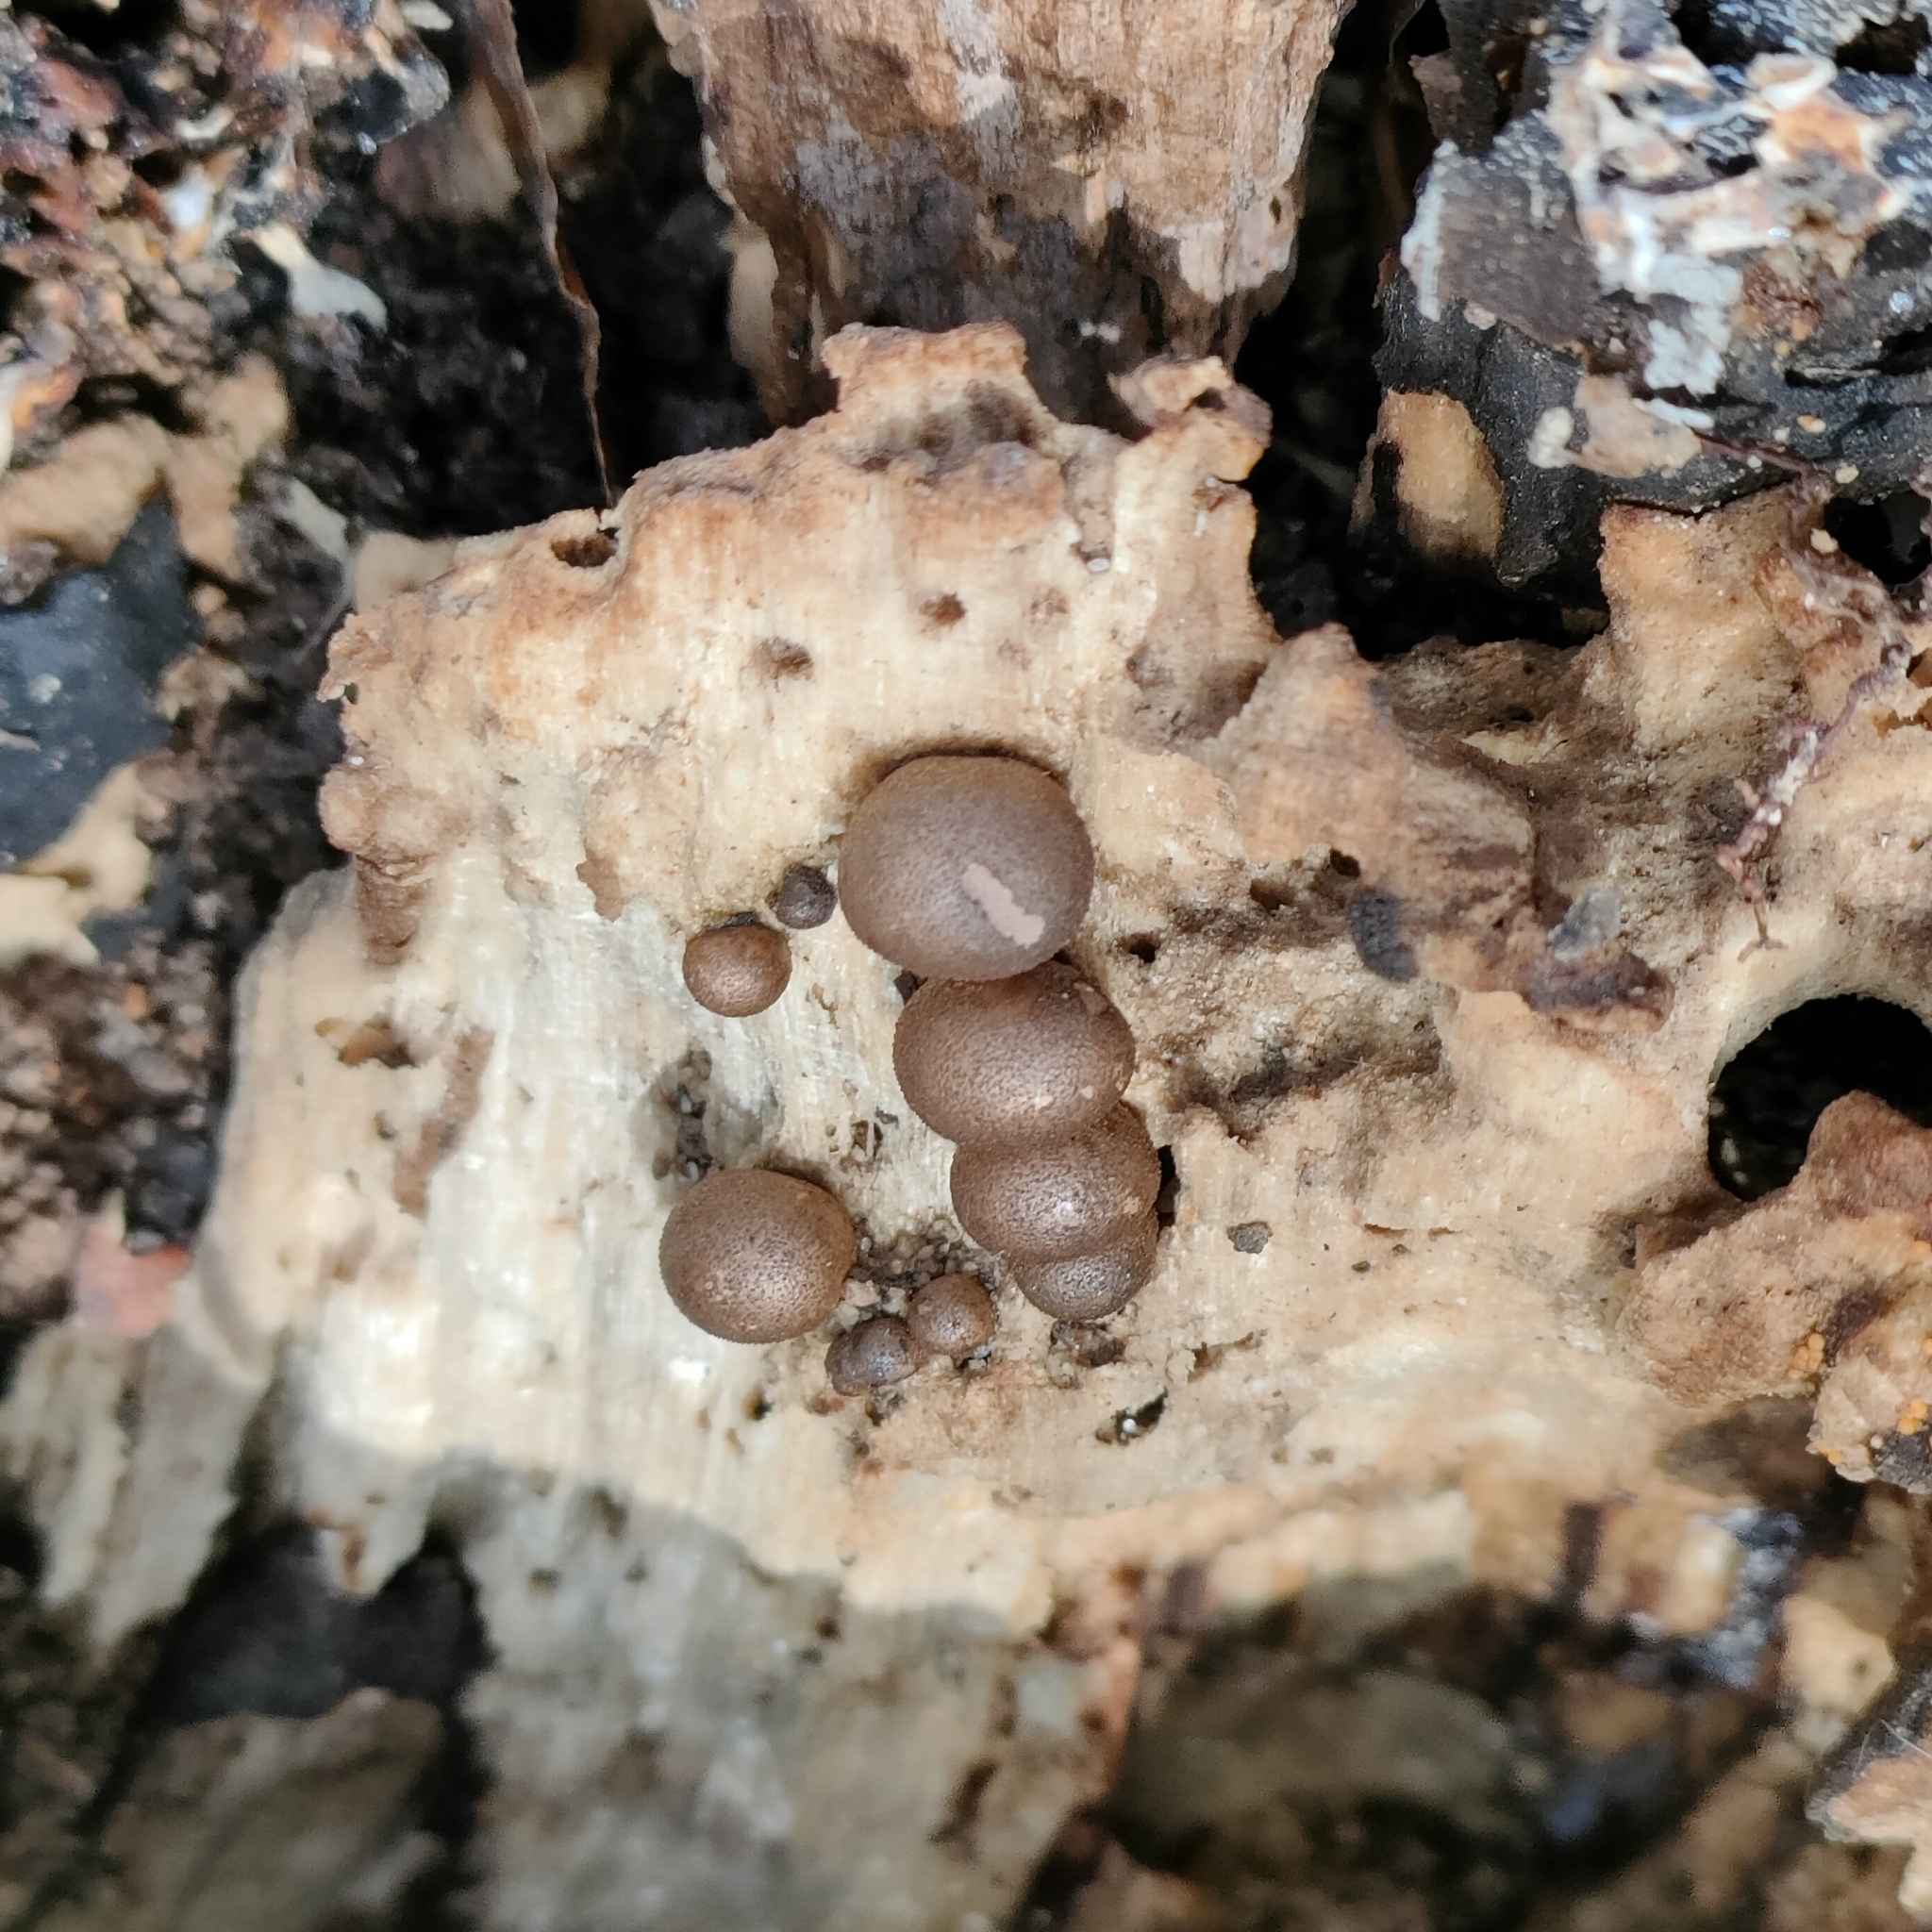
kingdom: Protozoa
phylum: Mycetozoa
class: Myxomycetes
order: Cribrariales
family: Tubiferaceae
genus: Lycogala
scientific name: Lycogala epidendrum
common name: Wolf's milk
